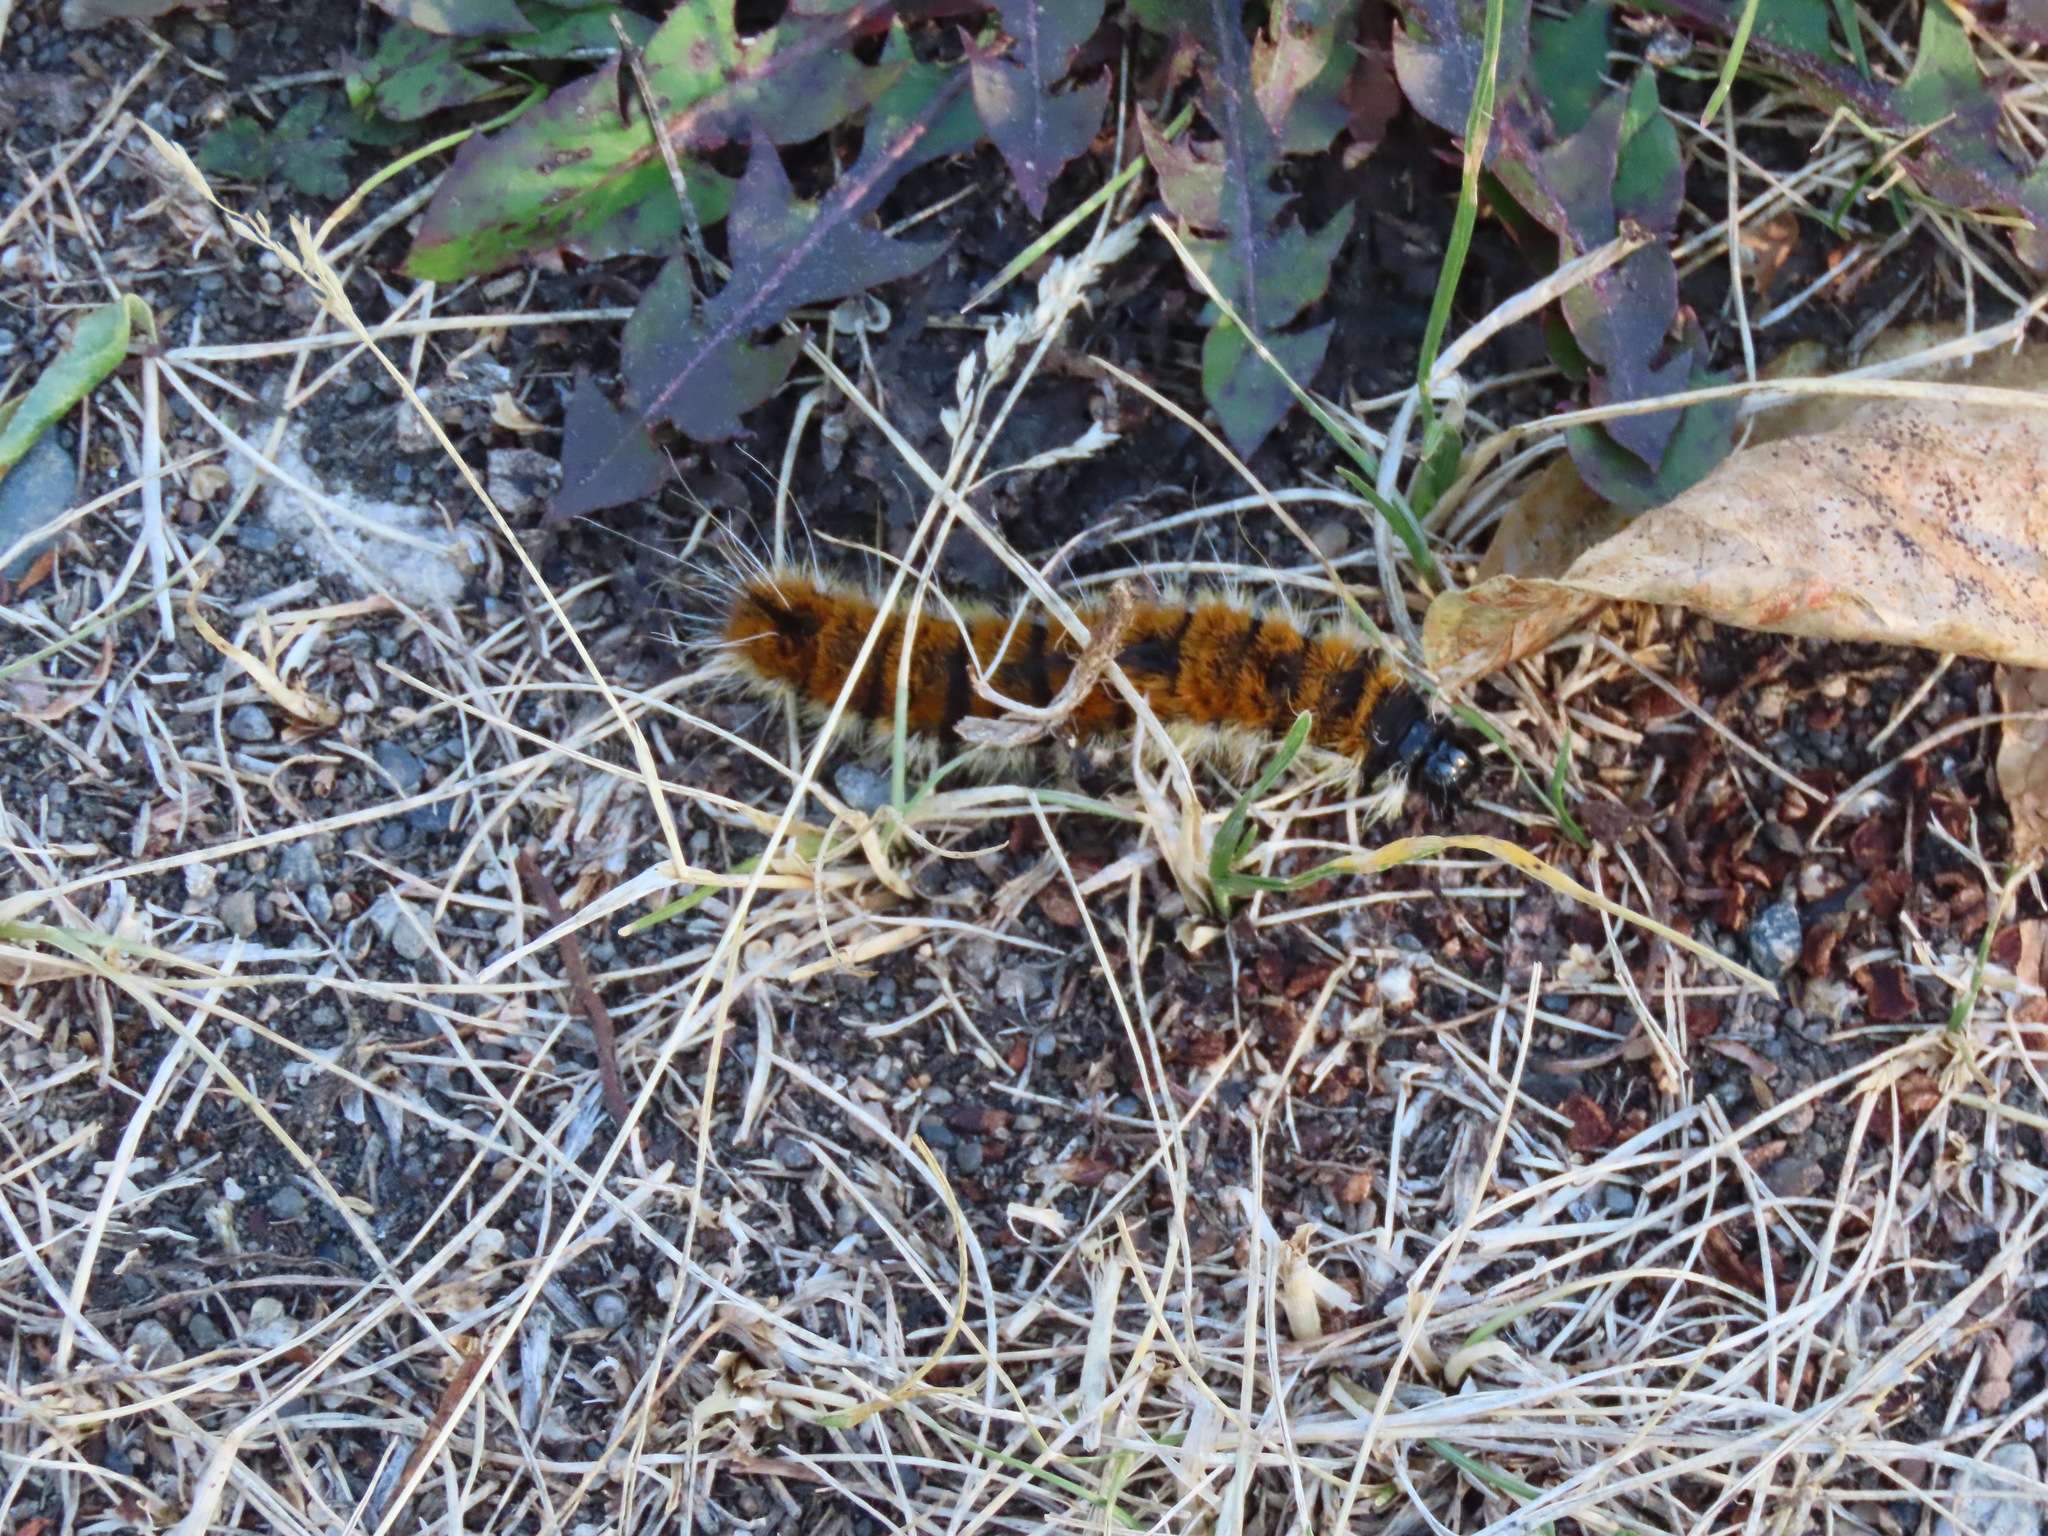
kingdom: Animalia
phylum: Arthropoda
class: Insecta
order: Lepidoptera
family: Noctuidae
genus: Acronicta
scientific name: Acronicta insita
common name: Large gray dagger
